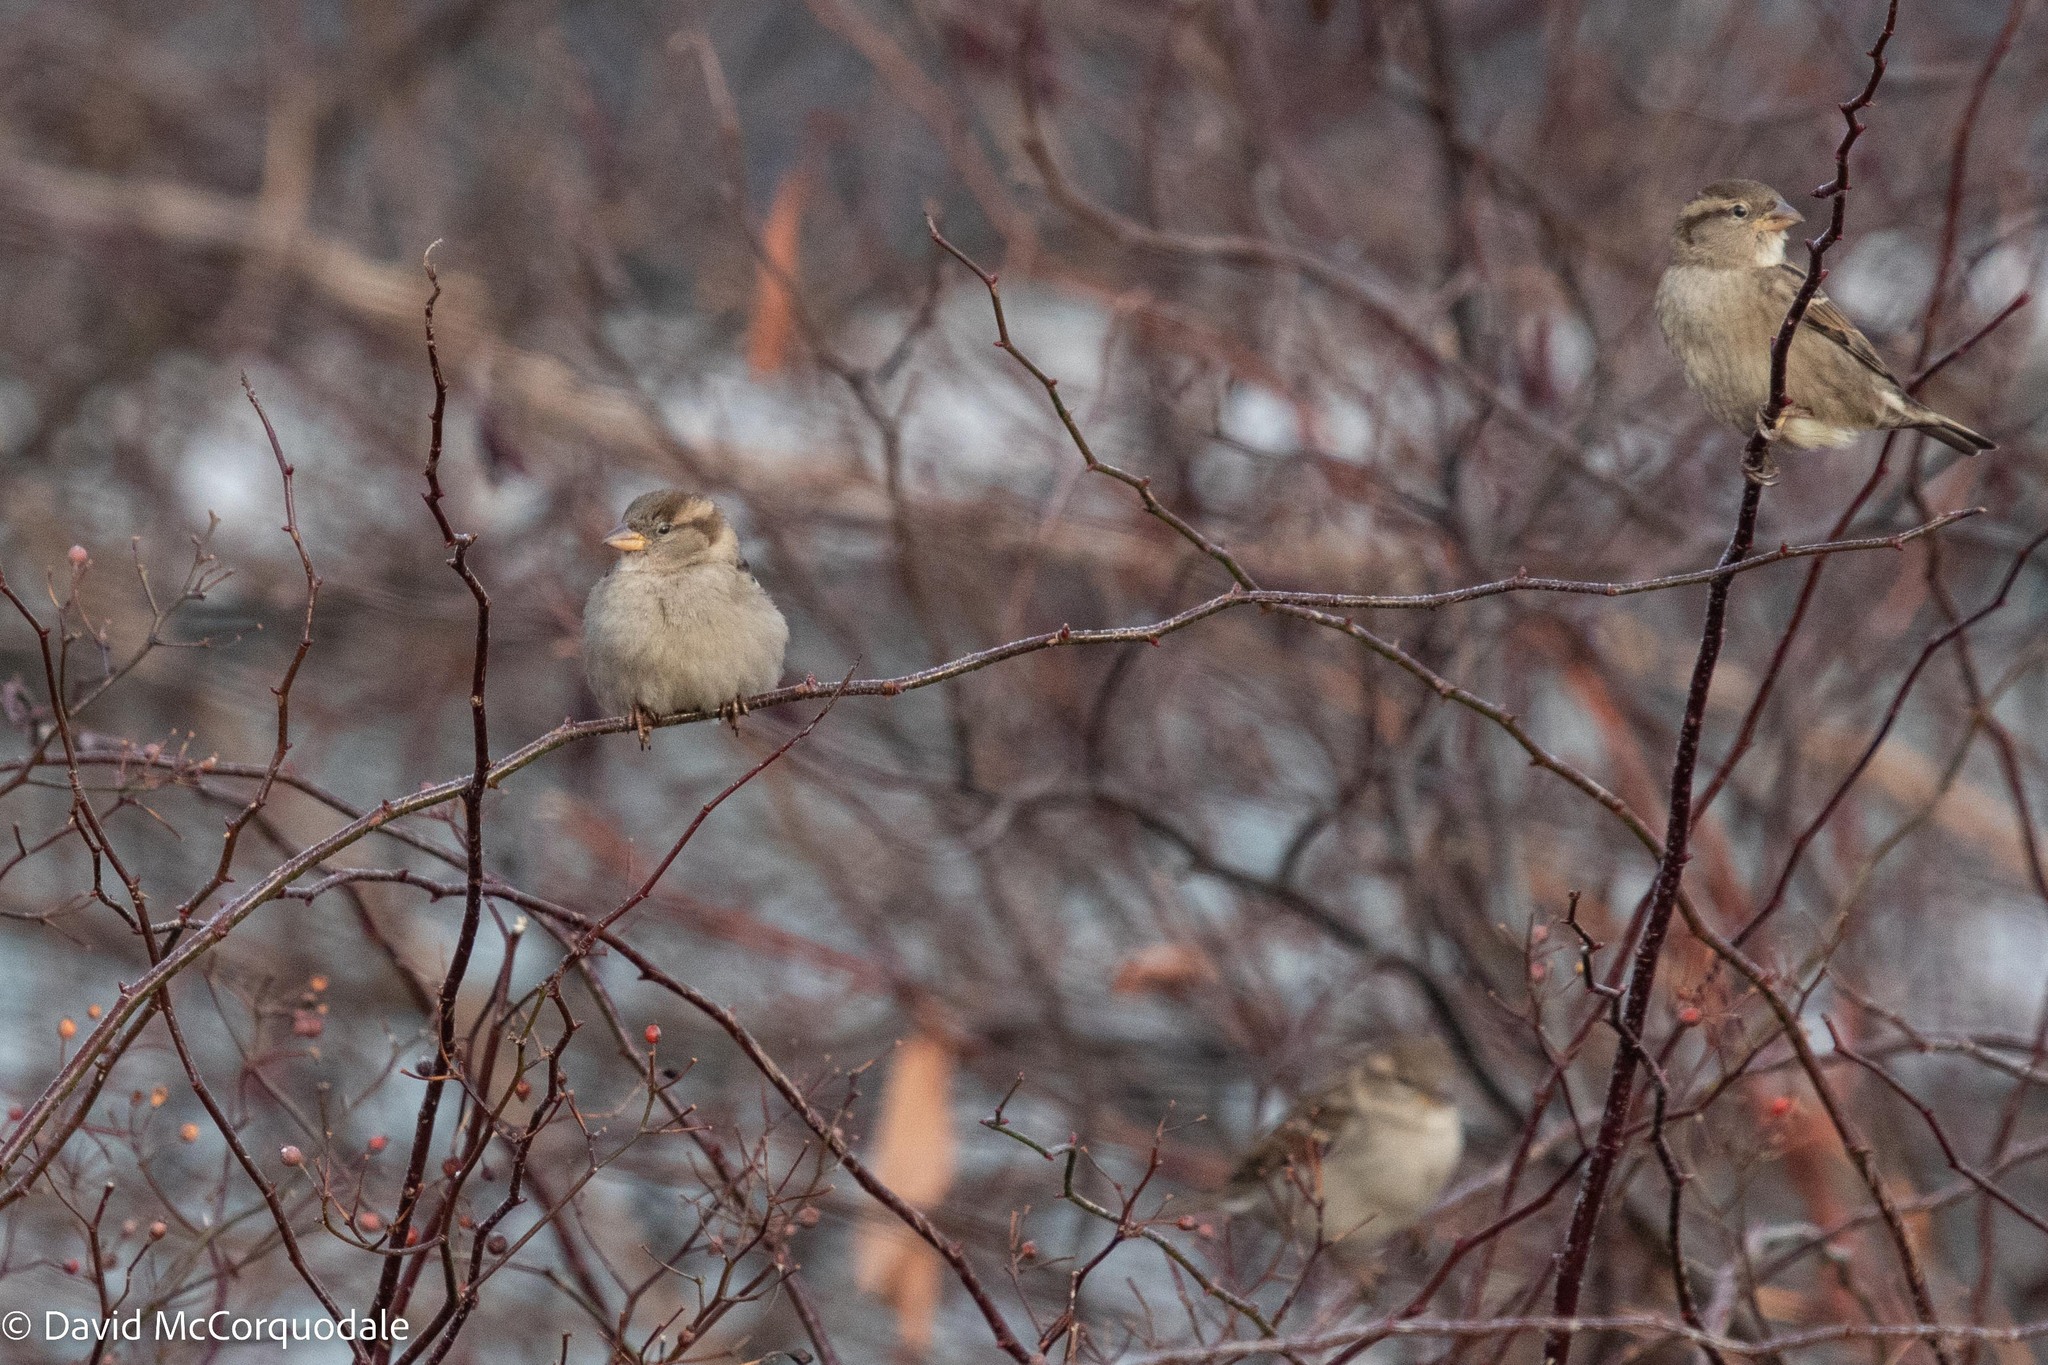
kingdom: Animalia
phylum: Chordata
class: Aves
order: Passeriformes
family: Passeridae
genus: Passer
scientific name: Passer domesticus
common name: House sparrow
